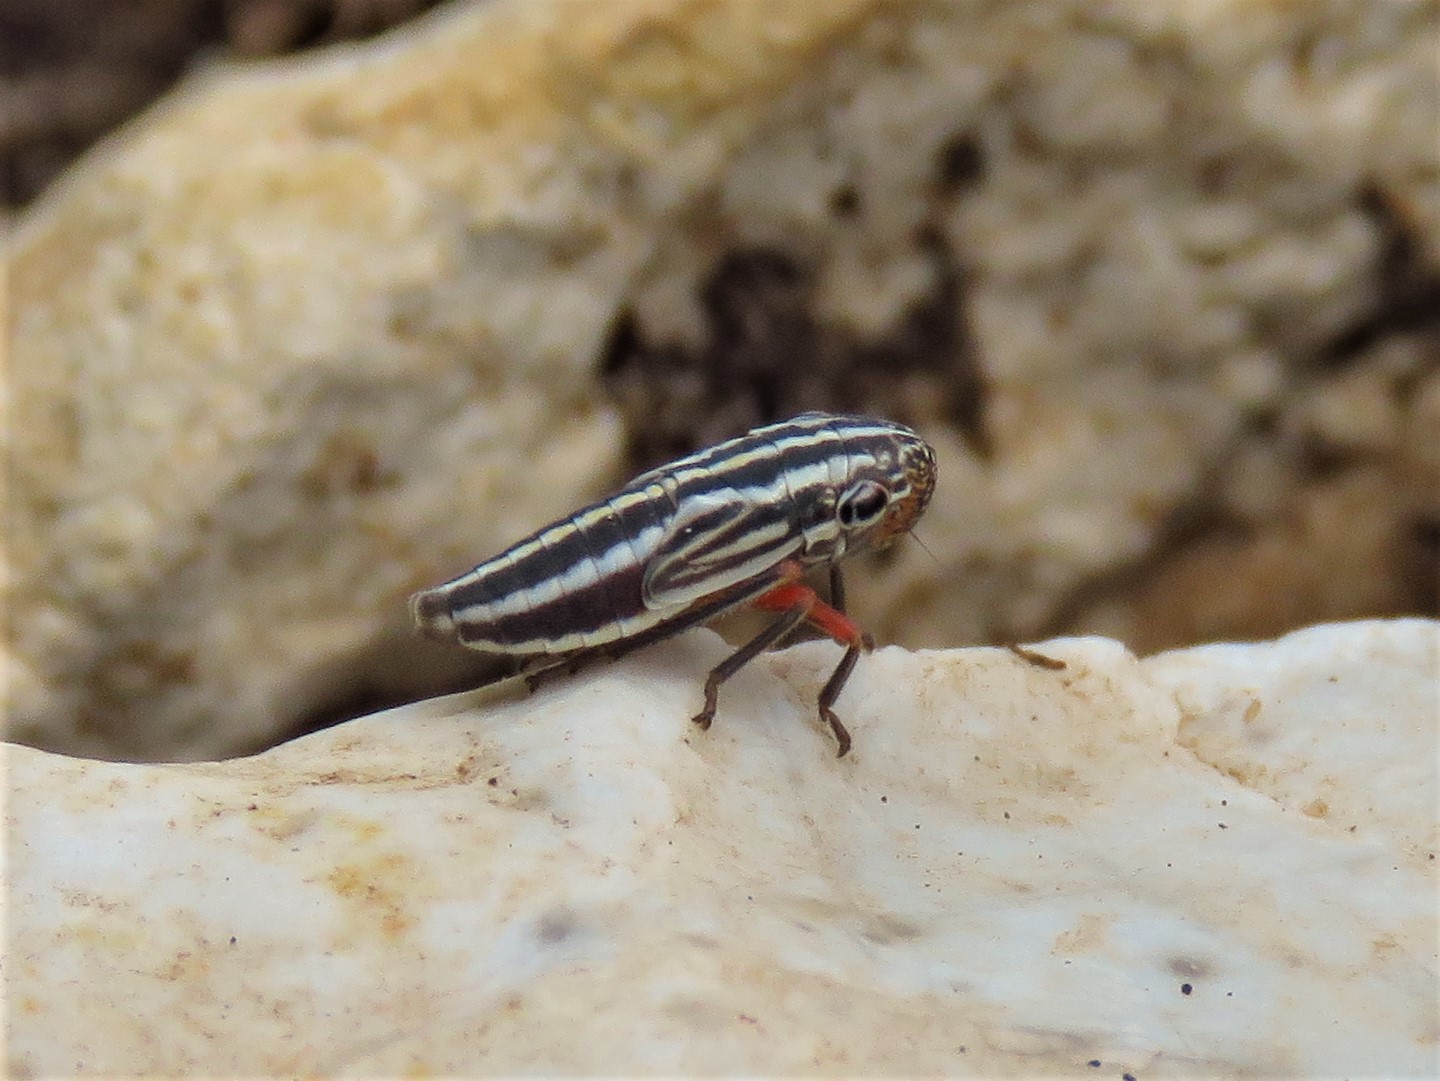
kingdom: Animalia
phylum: Arthropoda
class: Insecta
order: Hemiptera
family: Cicadellidae
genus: Cuerna
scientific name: Cuerna costalis
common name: Lateral-lined sharpshooter
